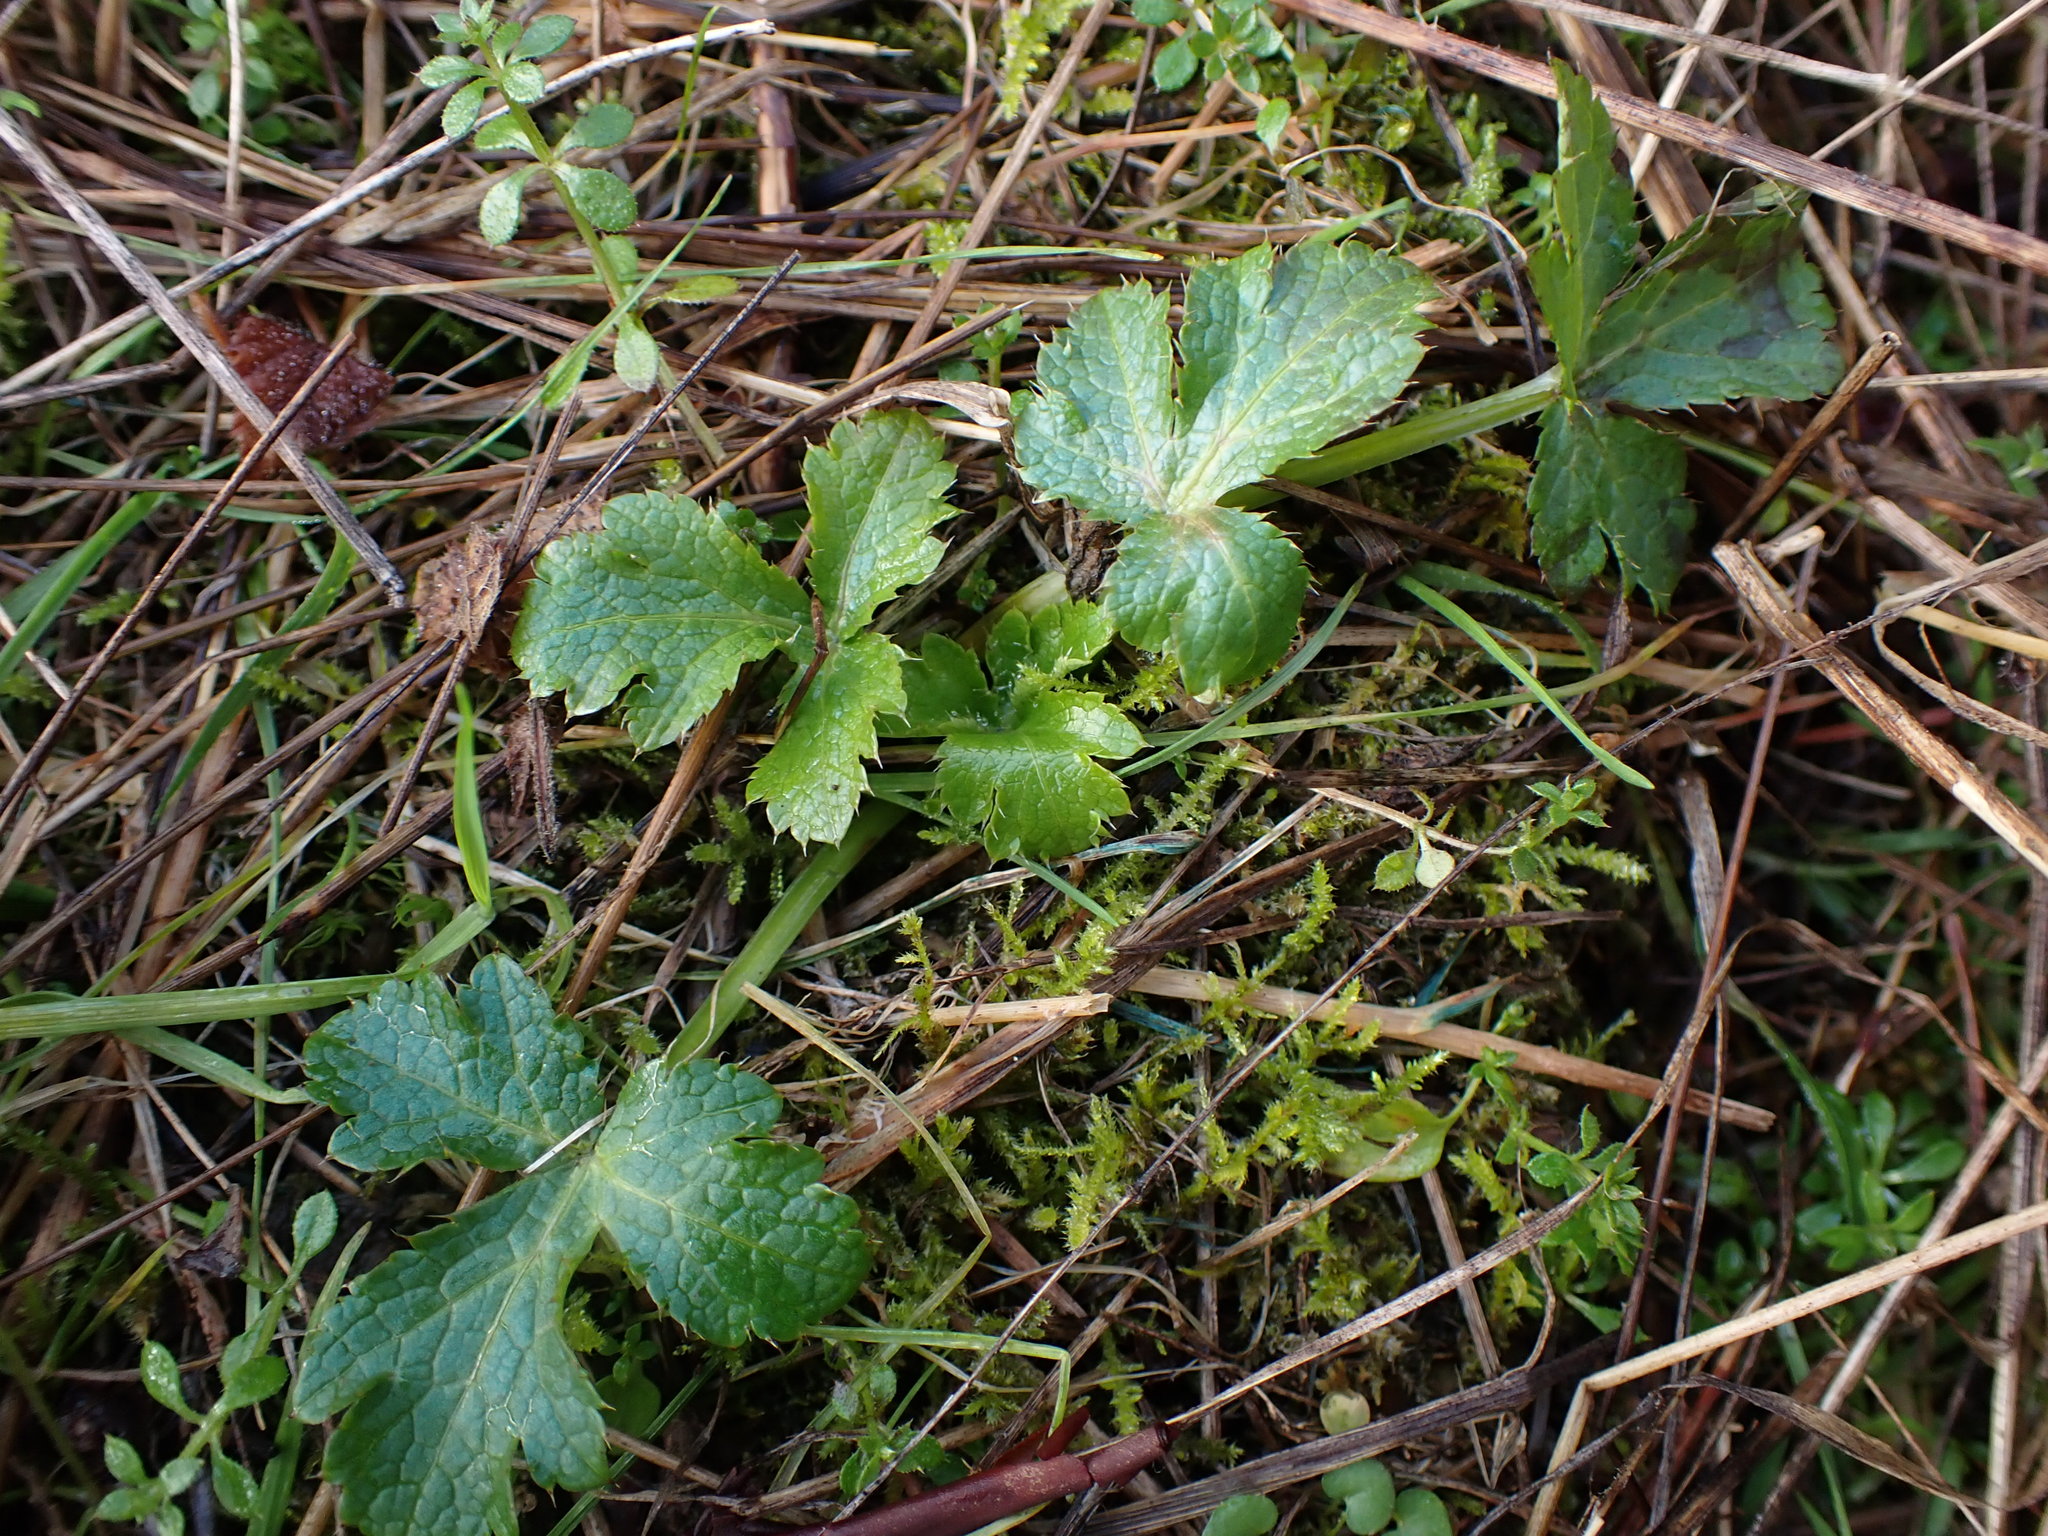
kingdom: Plantae
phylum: Tracheophyta
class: Magnoliopsida
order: Apiales
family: Apiaceae
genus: Sanicula
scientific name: Sanicula crassicaulis
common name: Western snakeroot
